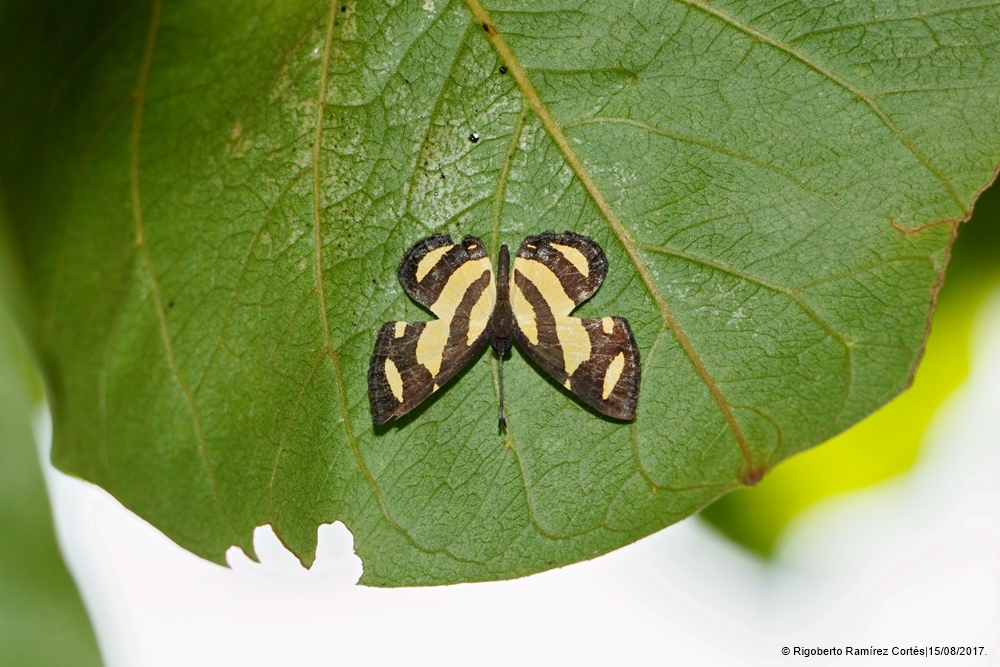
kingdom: Animalia
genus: Baeotis
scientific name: Baeotis zonata
